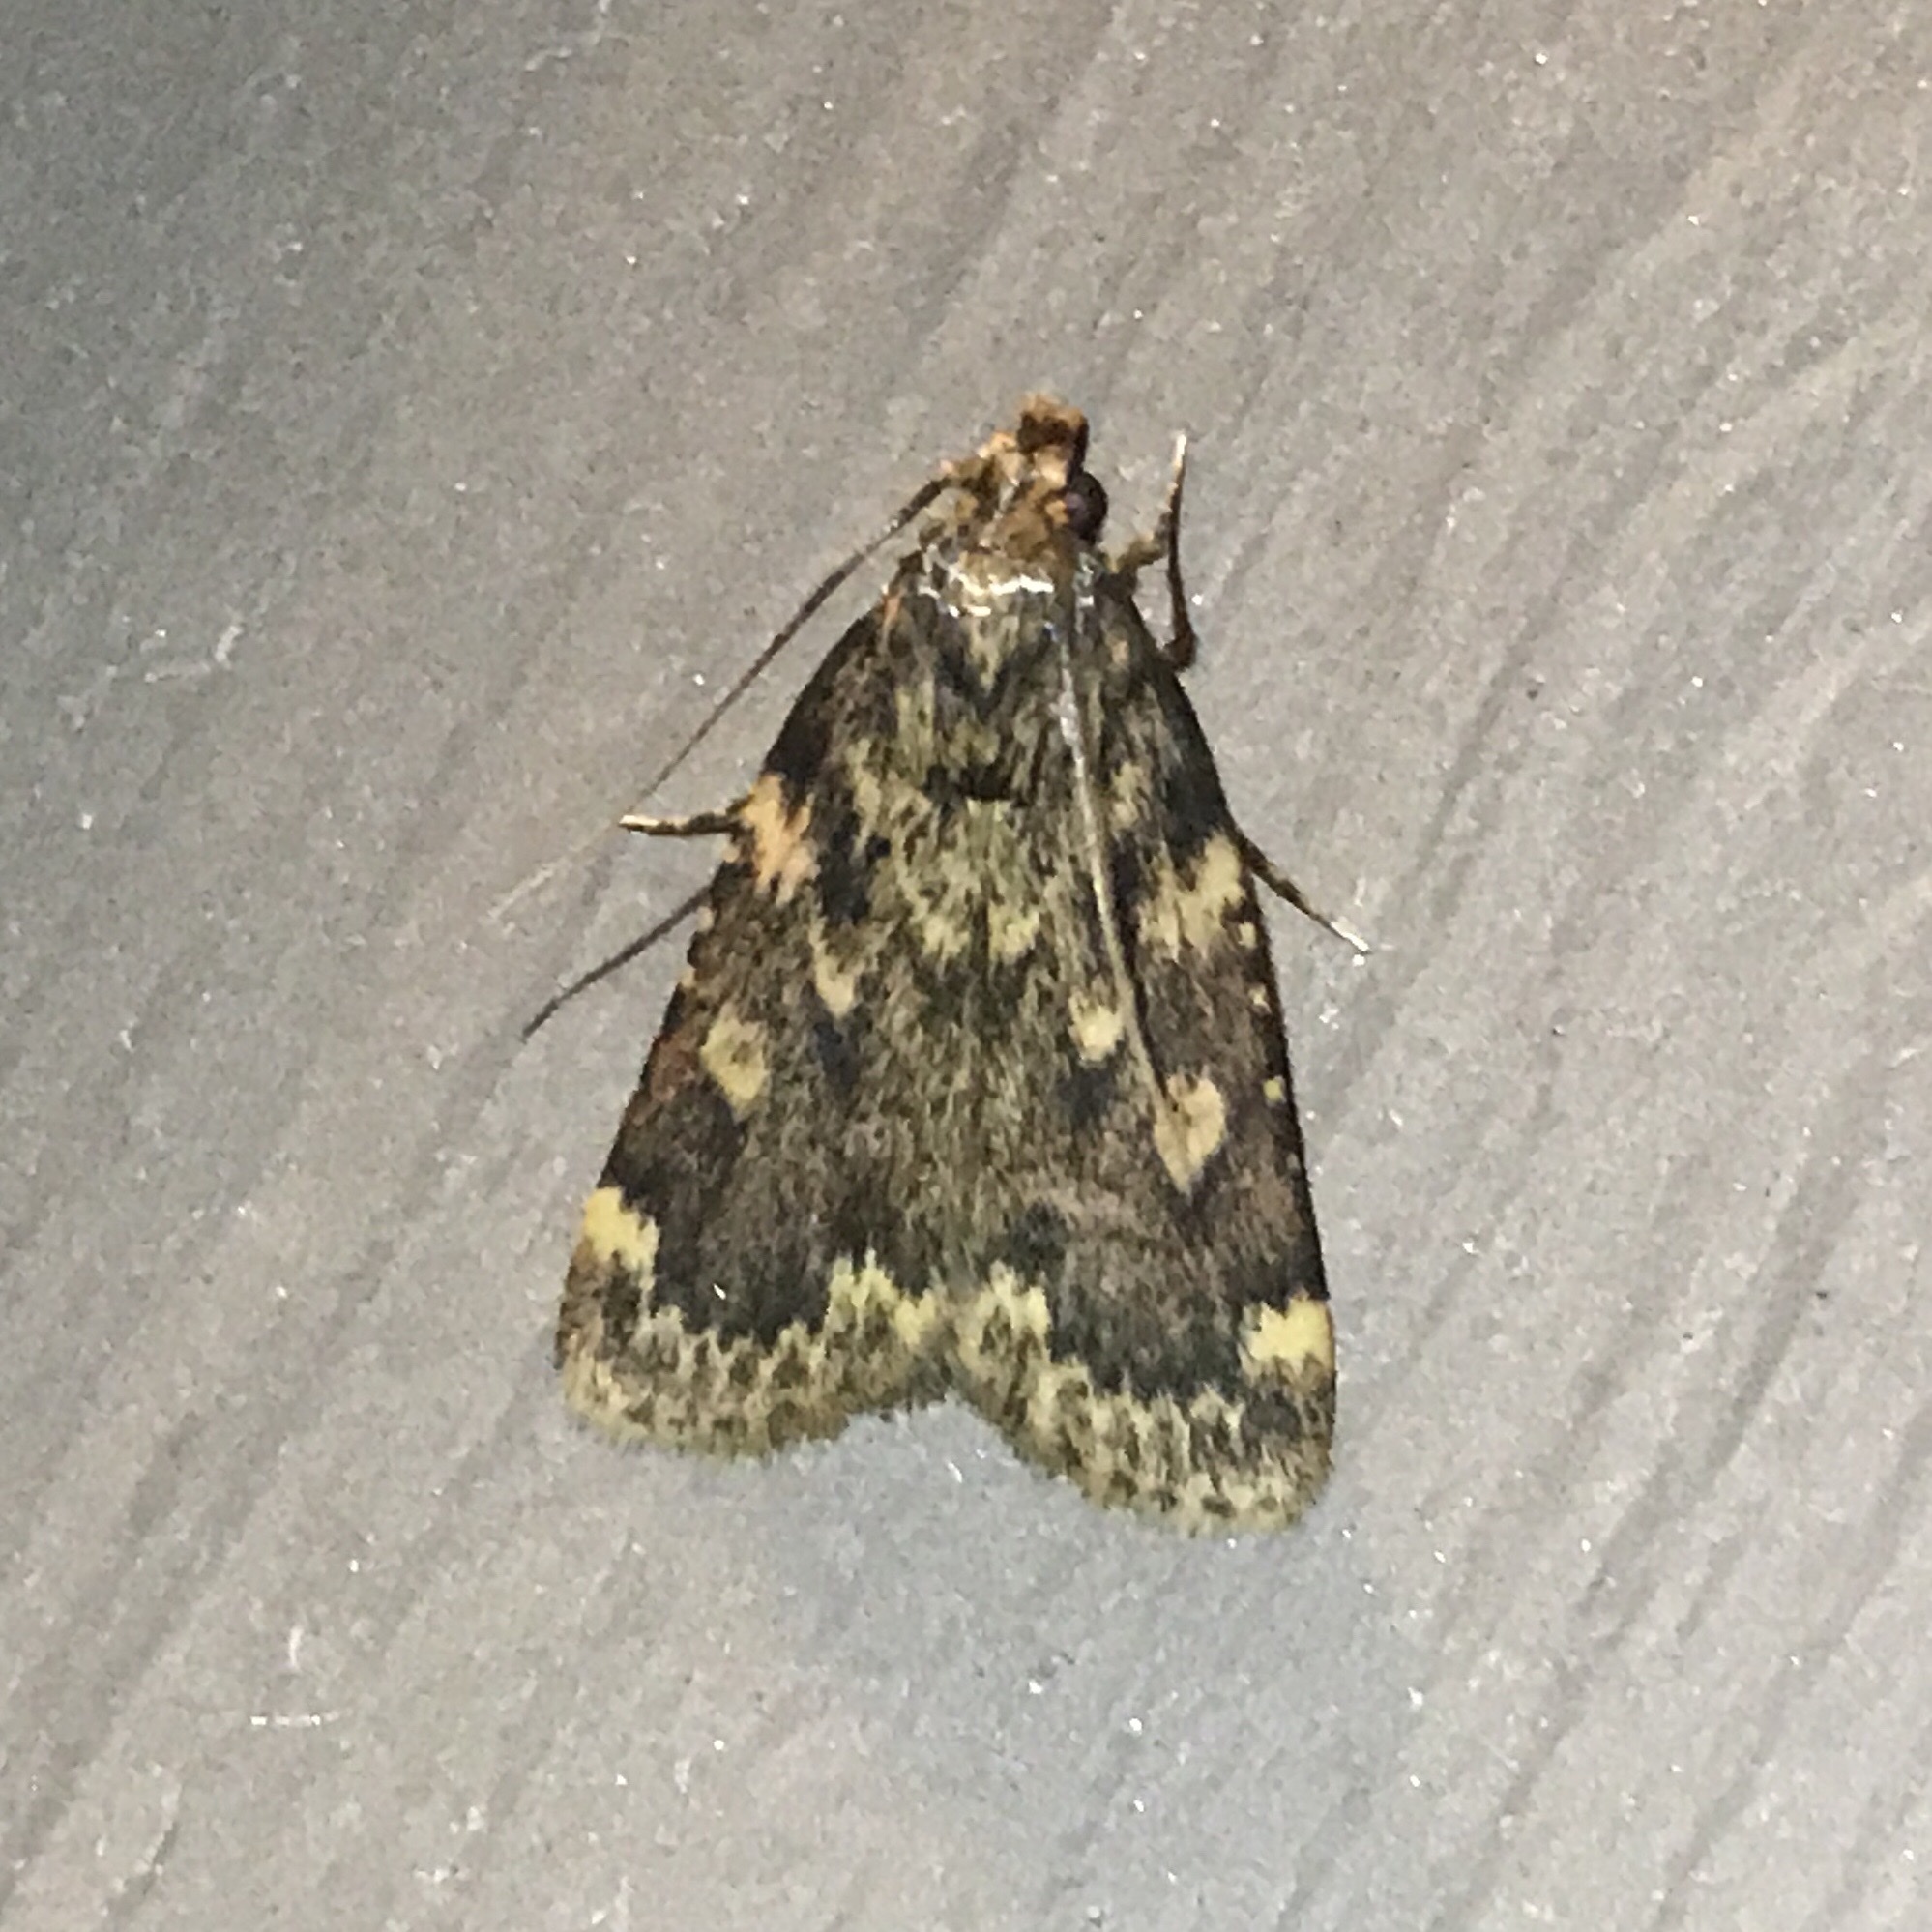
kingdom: Animalia
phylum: Arthropoda
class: Insecta
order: Lepidoptera
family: Pyralidae
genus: Aglossa
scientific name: Aglossa cuprina
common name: Grease moth
